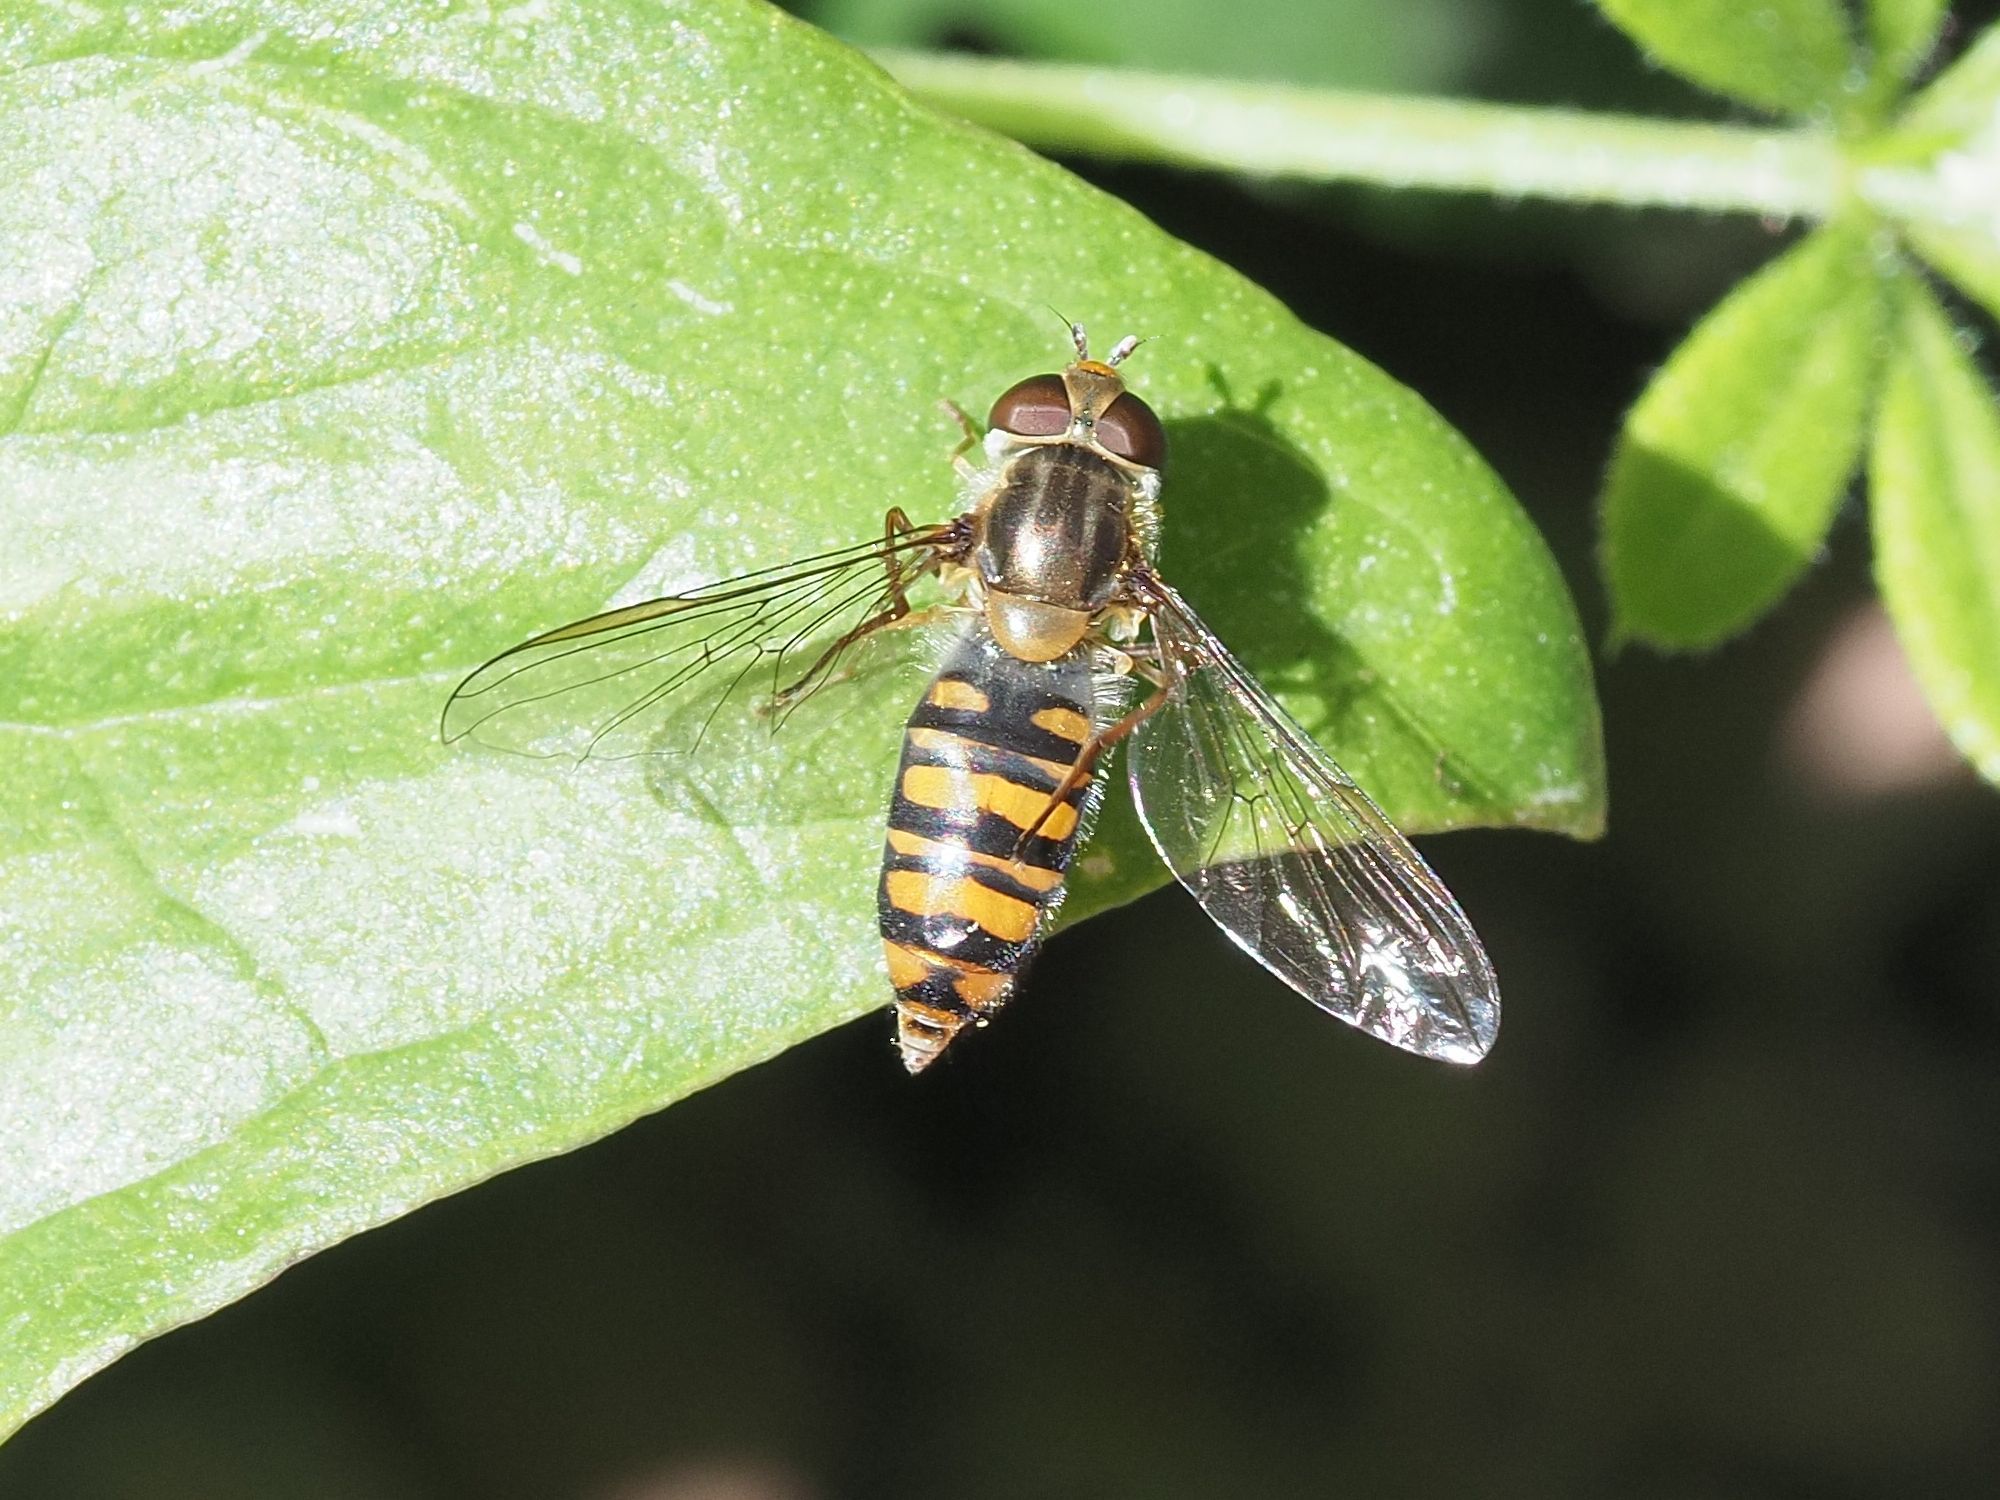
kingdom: Animalia
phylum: Arthropoda
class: Insecta
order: Diptera
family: Syrphidae
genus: Episyrphus
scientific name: Episyrphus balteatus
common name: Marmalade hoverfly
